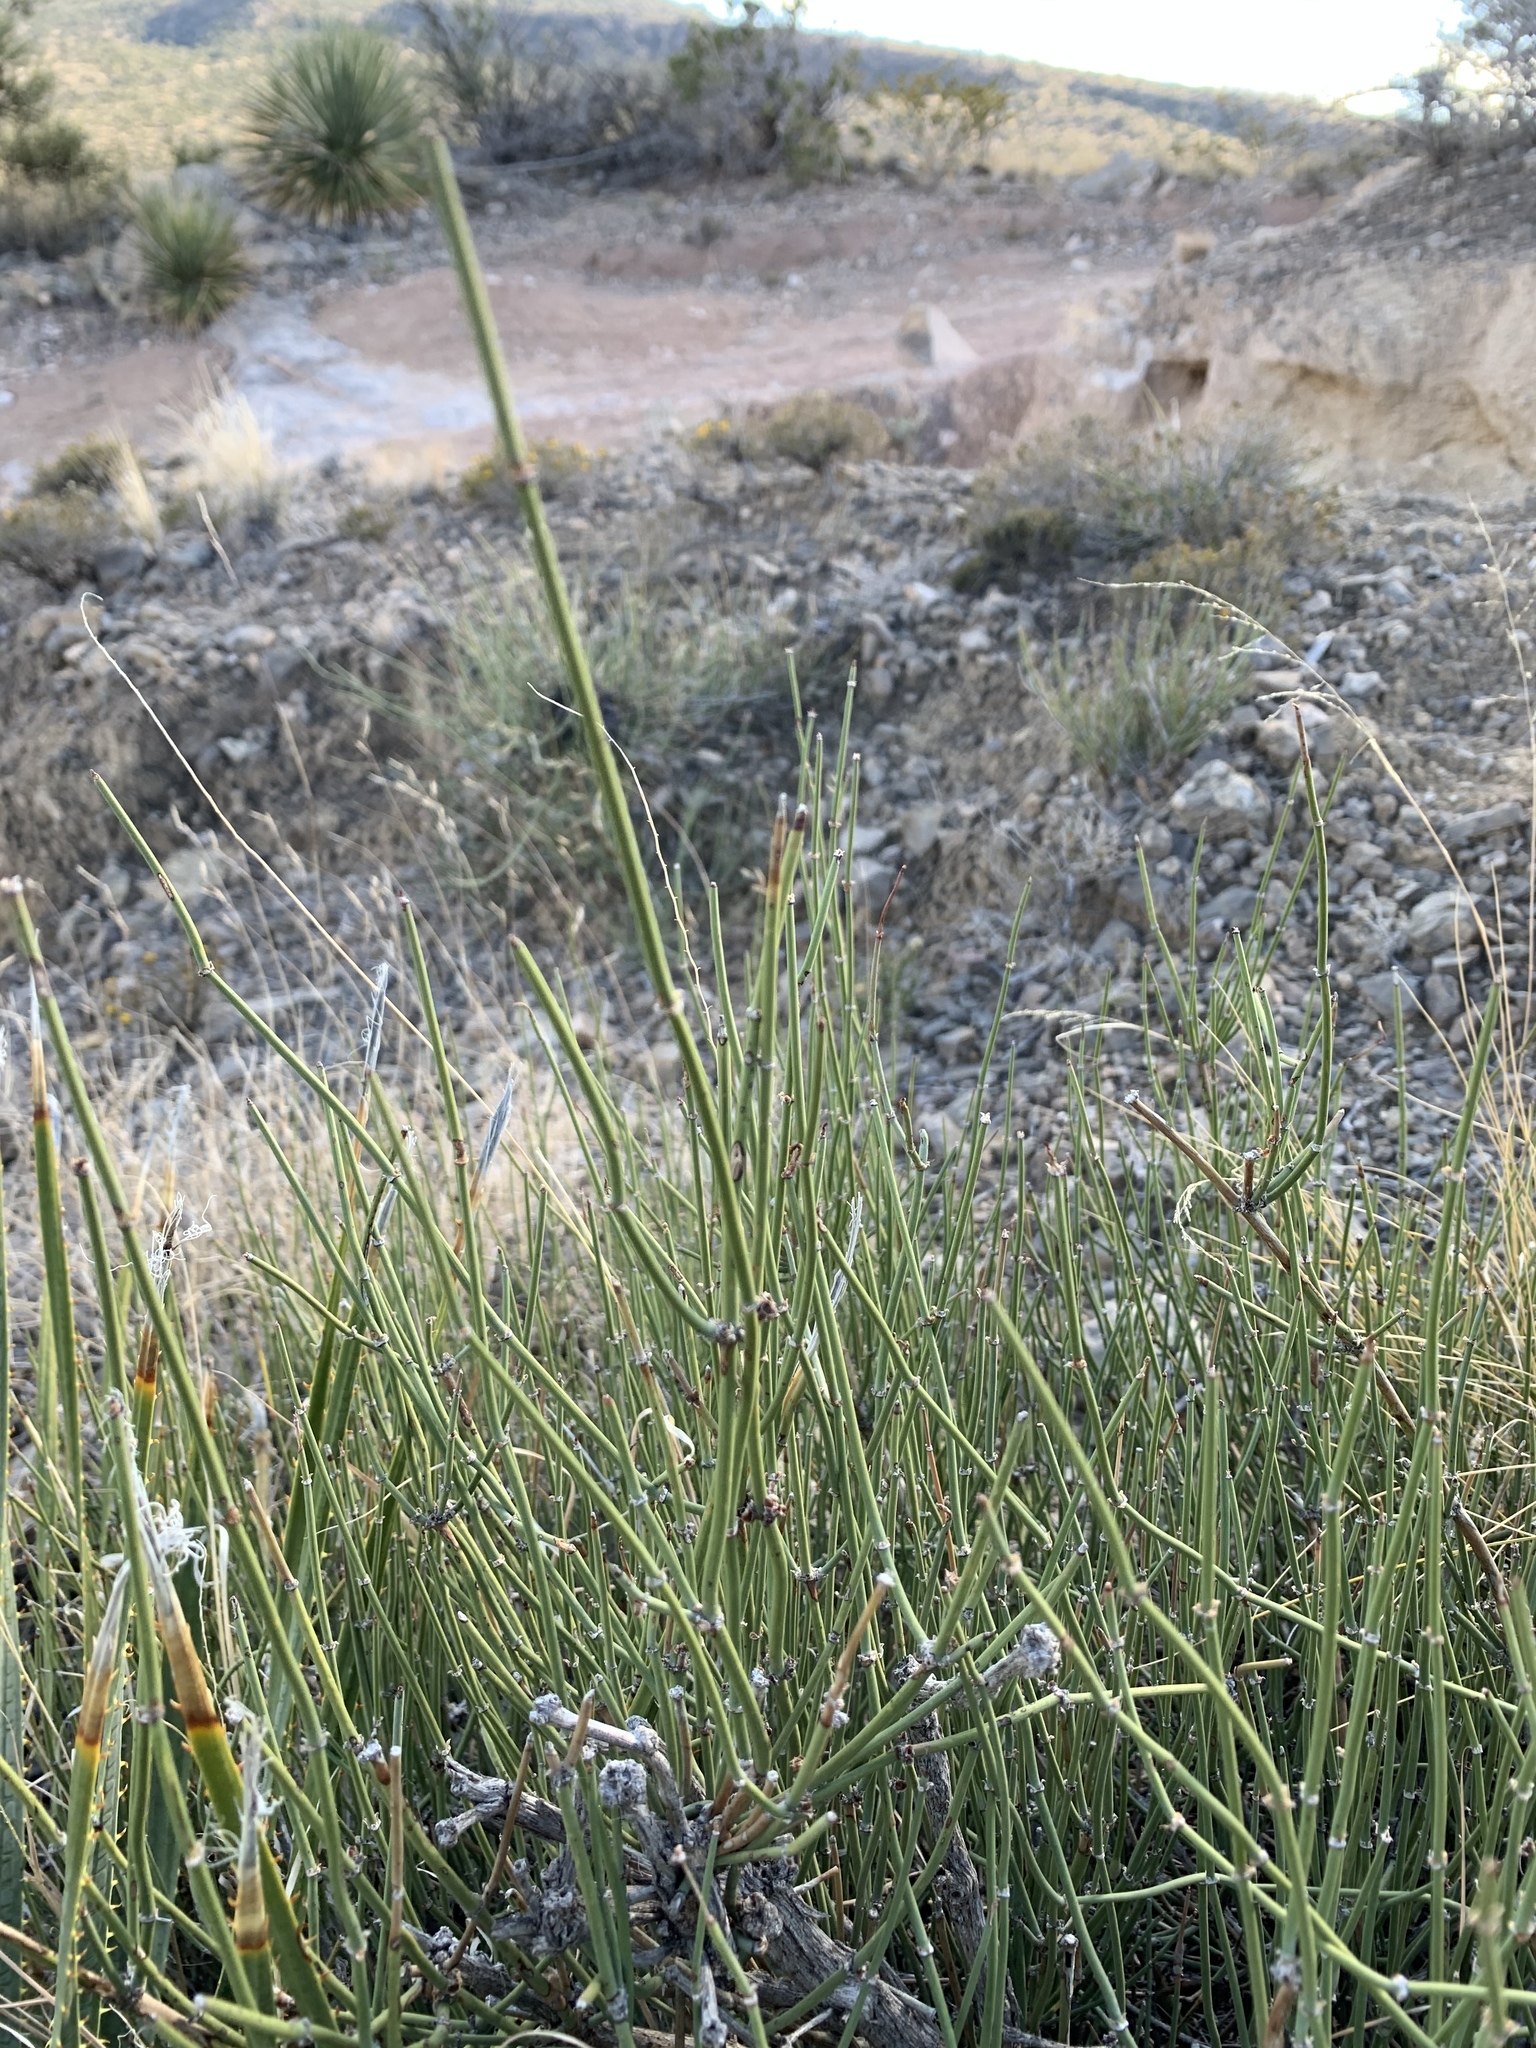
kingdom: Plantae
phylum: Tracheophyta
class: Gnetopsida
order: Ephedrales
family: Ephedraceae
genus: Ephedra
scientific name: Ephedra trifurca
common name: Mexican-tea
